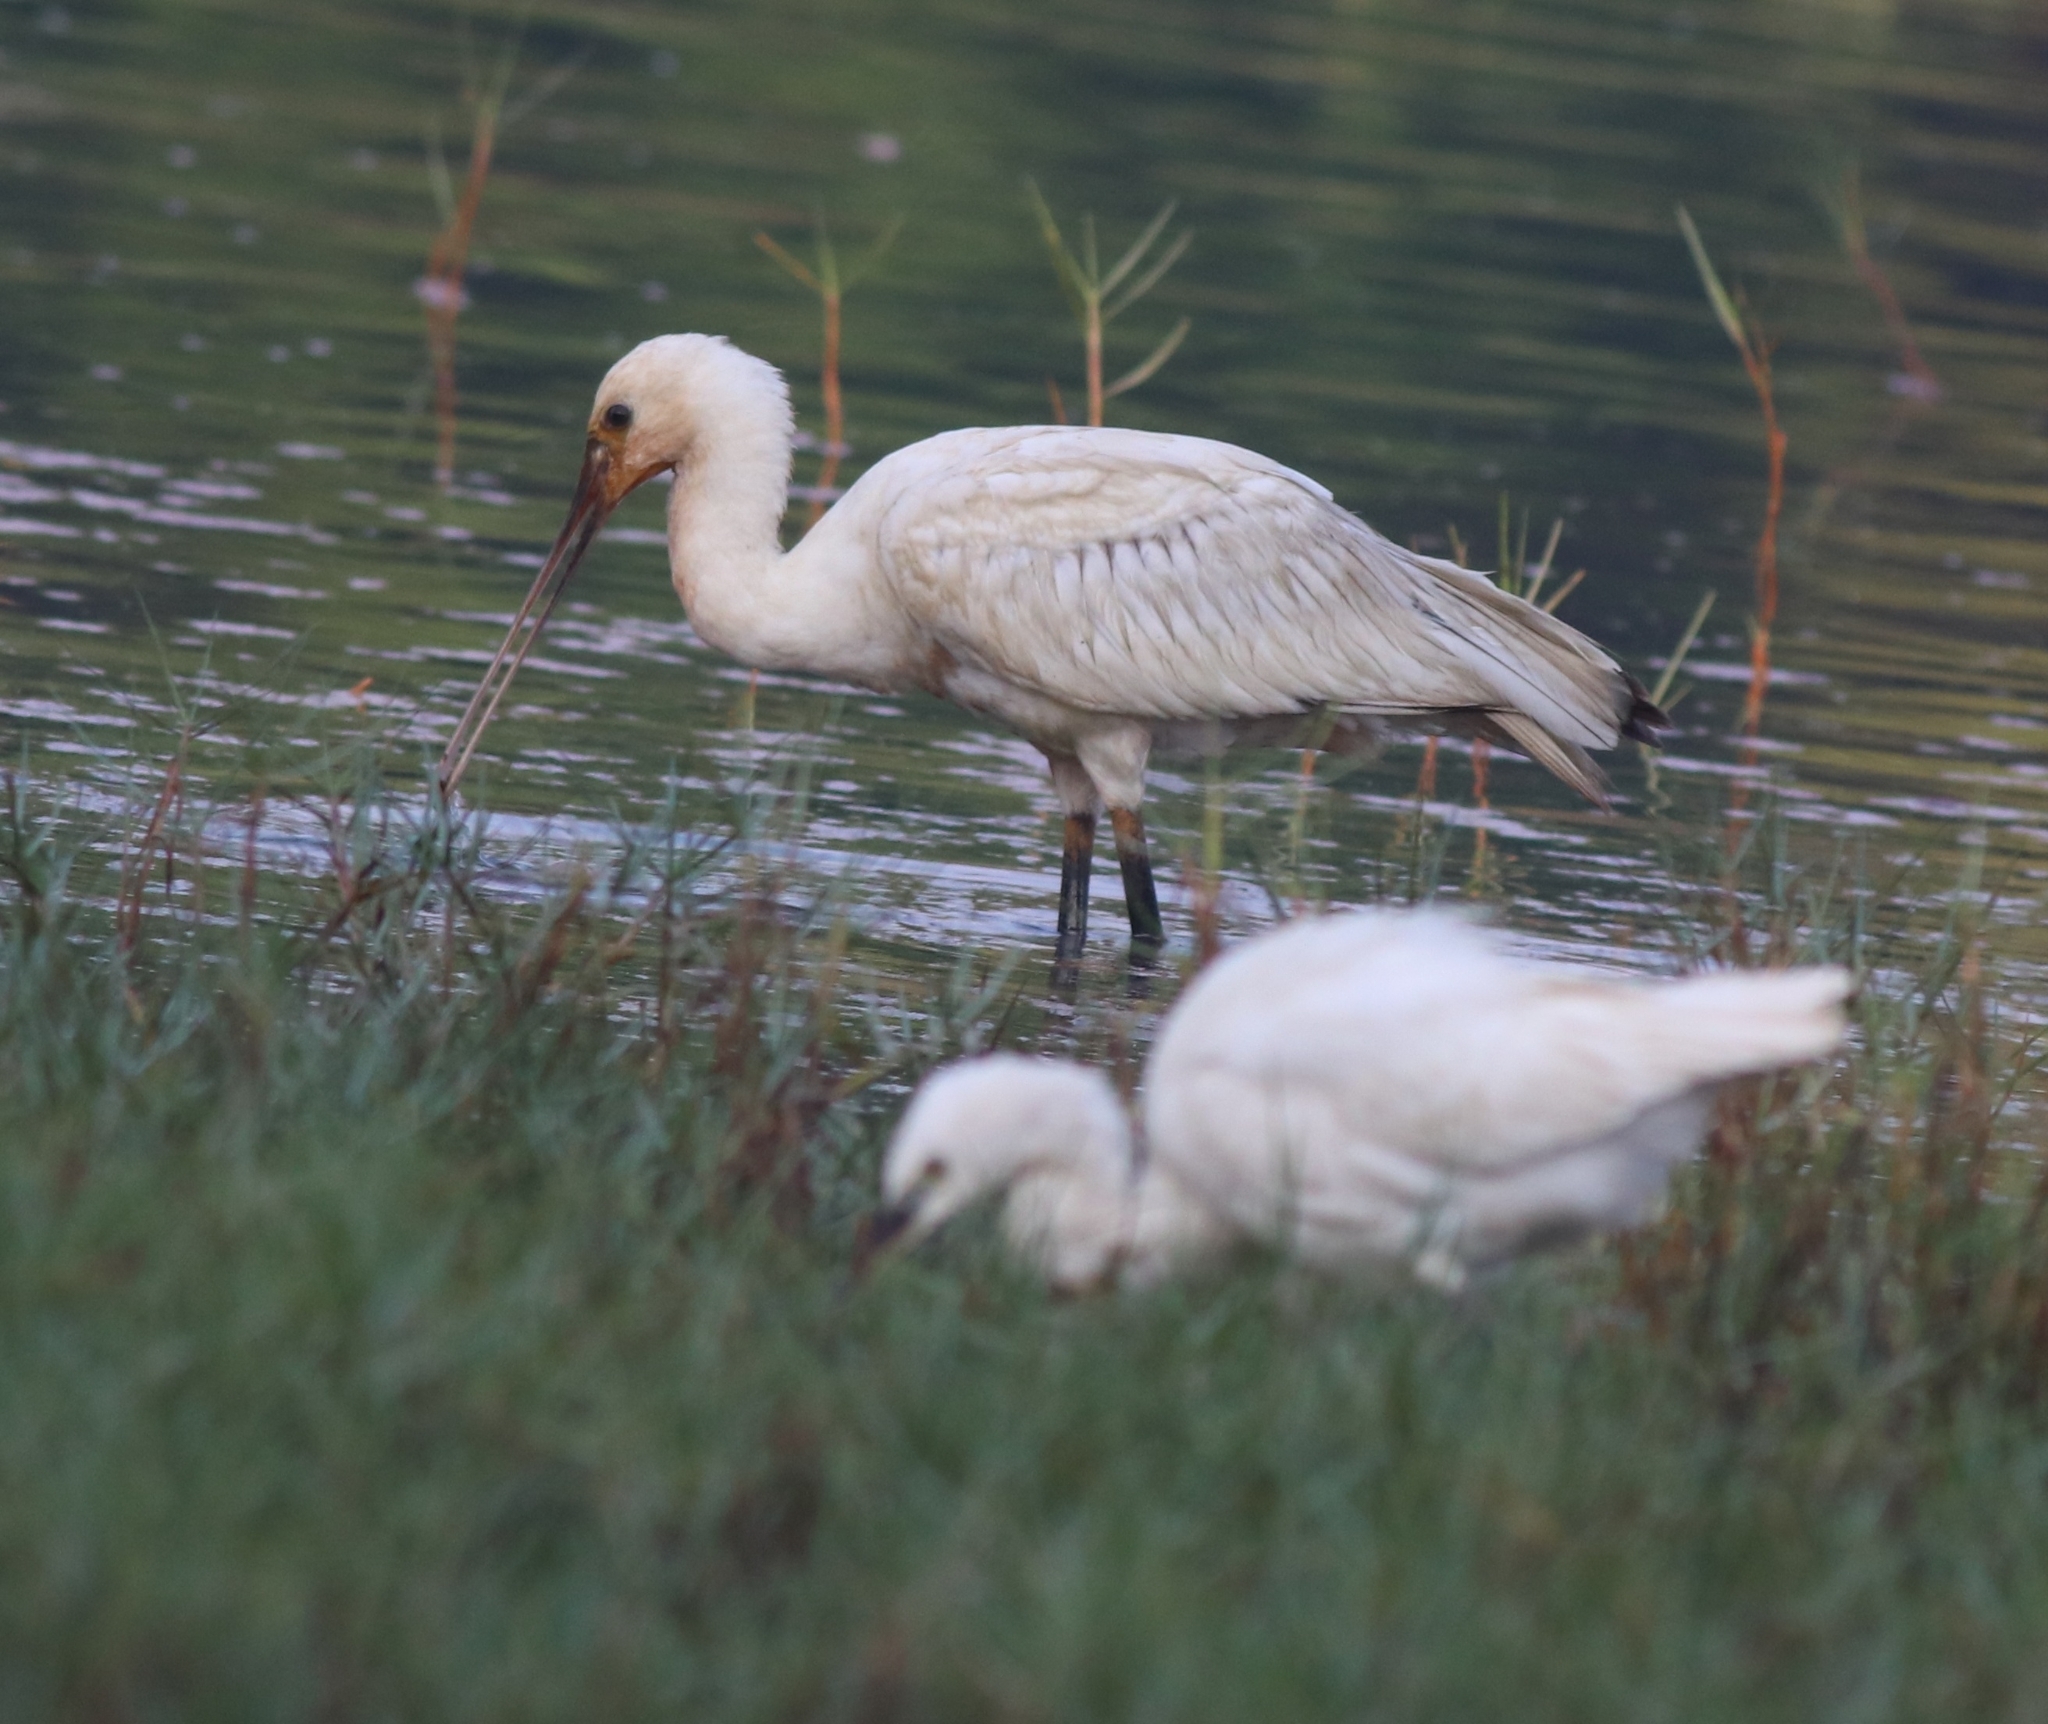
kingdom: Animalia
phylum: Chordata
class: Aves
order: Pelecaniformes
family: Threskiornithidae
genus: Platalea
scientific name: Platalea leucorodia
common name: Eurasian spoonbill
